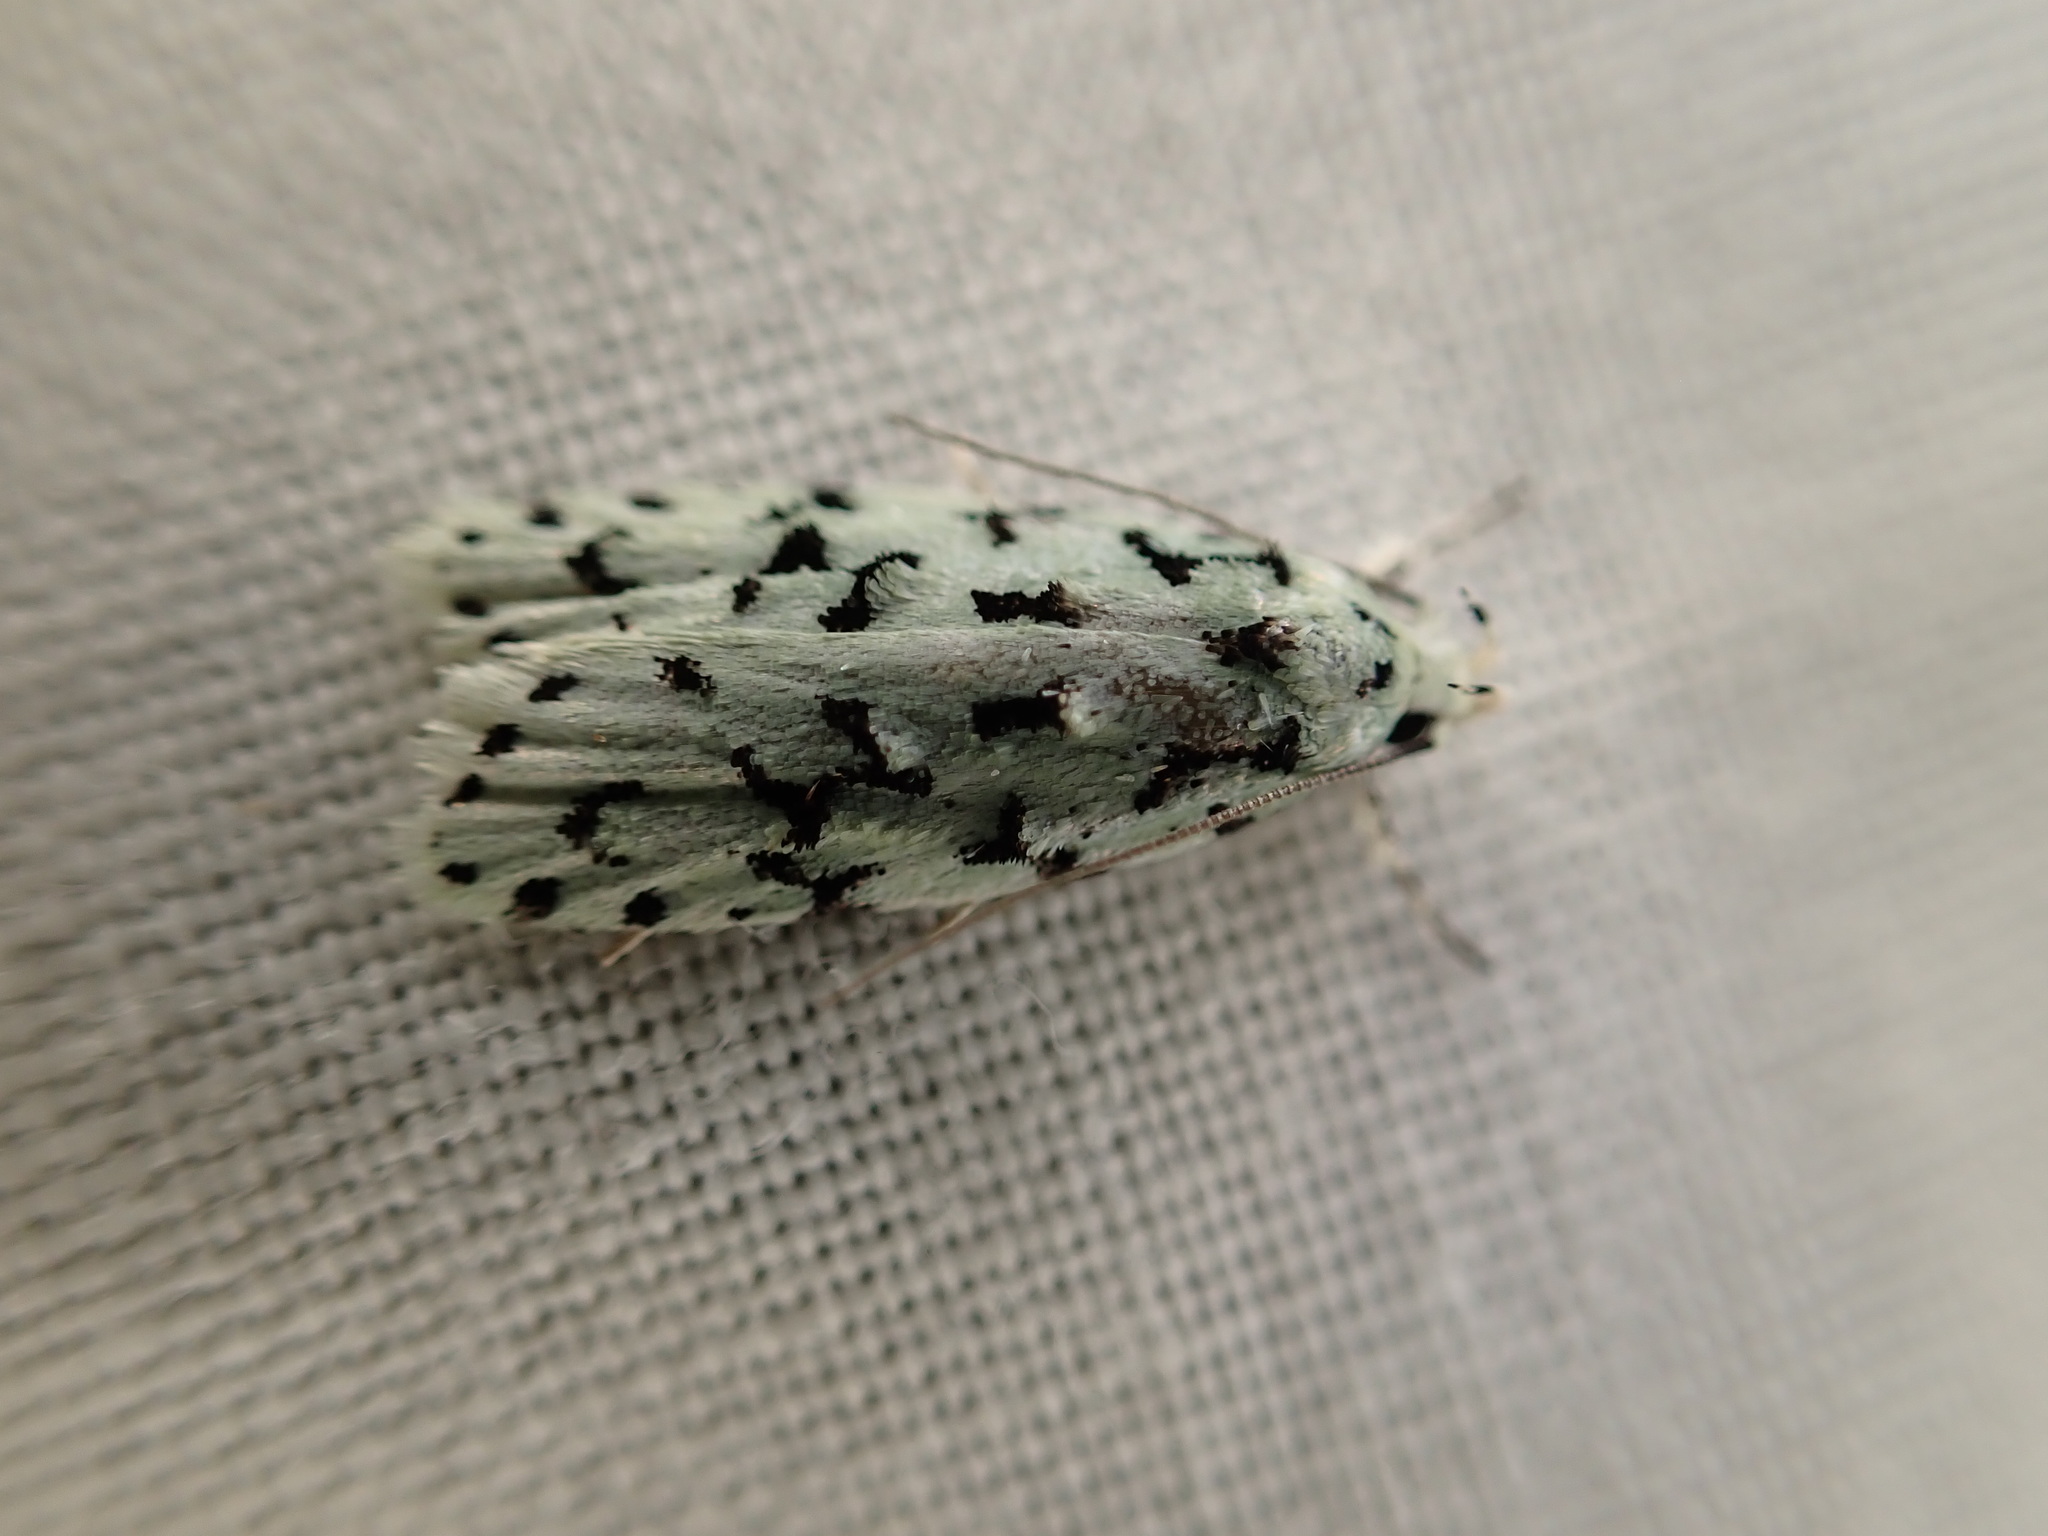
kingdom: Animalia
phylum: Arthropoda
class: Insecta
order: Lepidoptera
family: Oecophoridae
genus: Izatha
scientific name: Izatha huttoni
